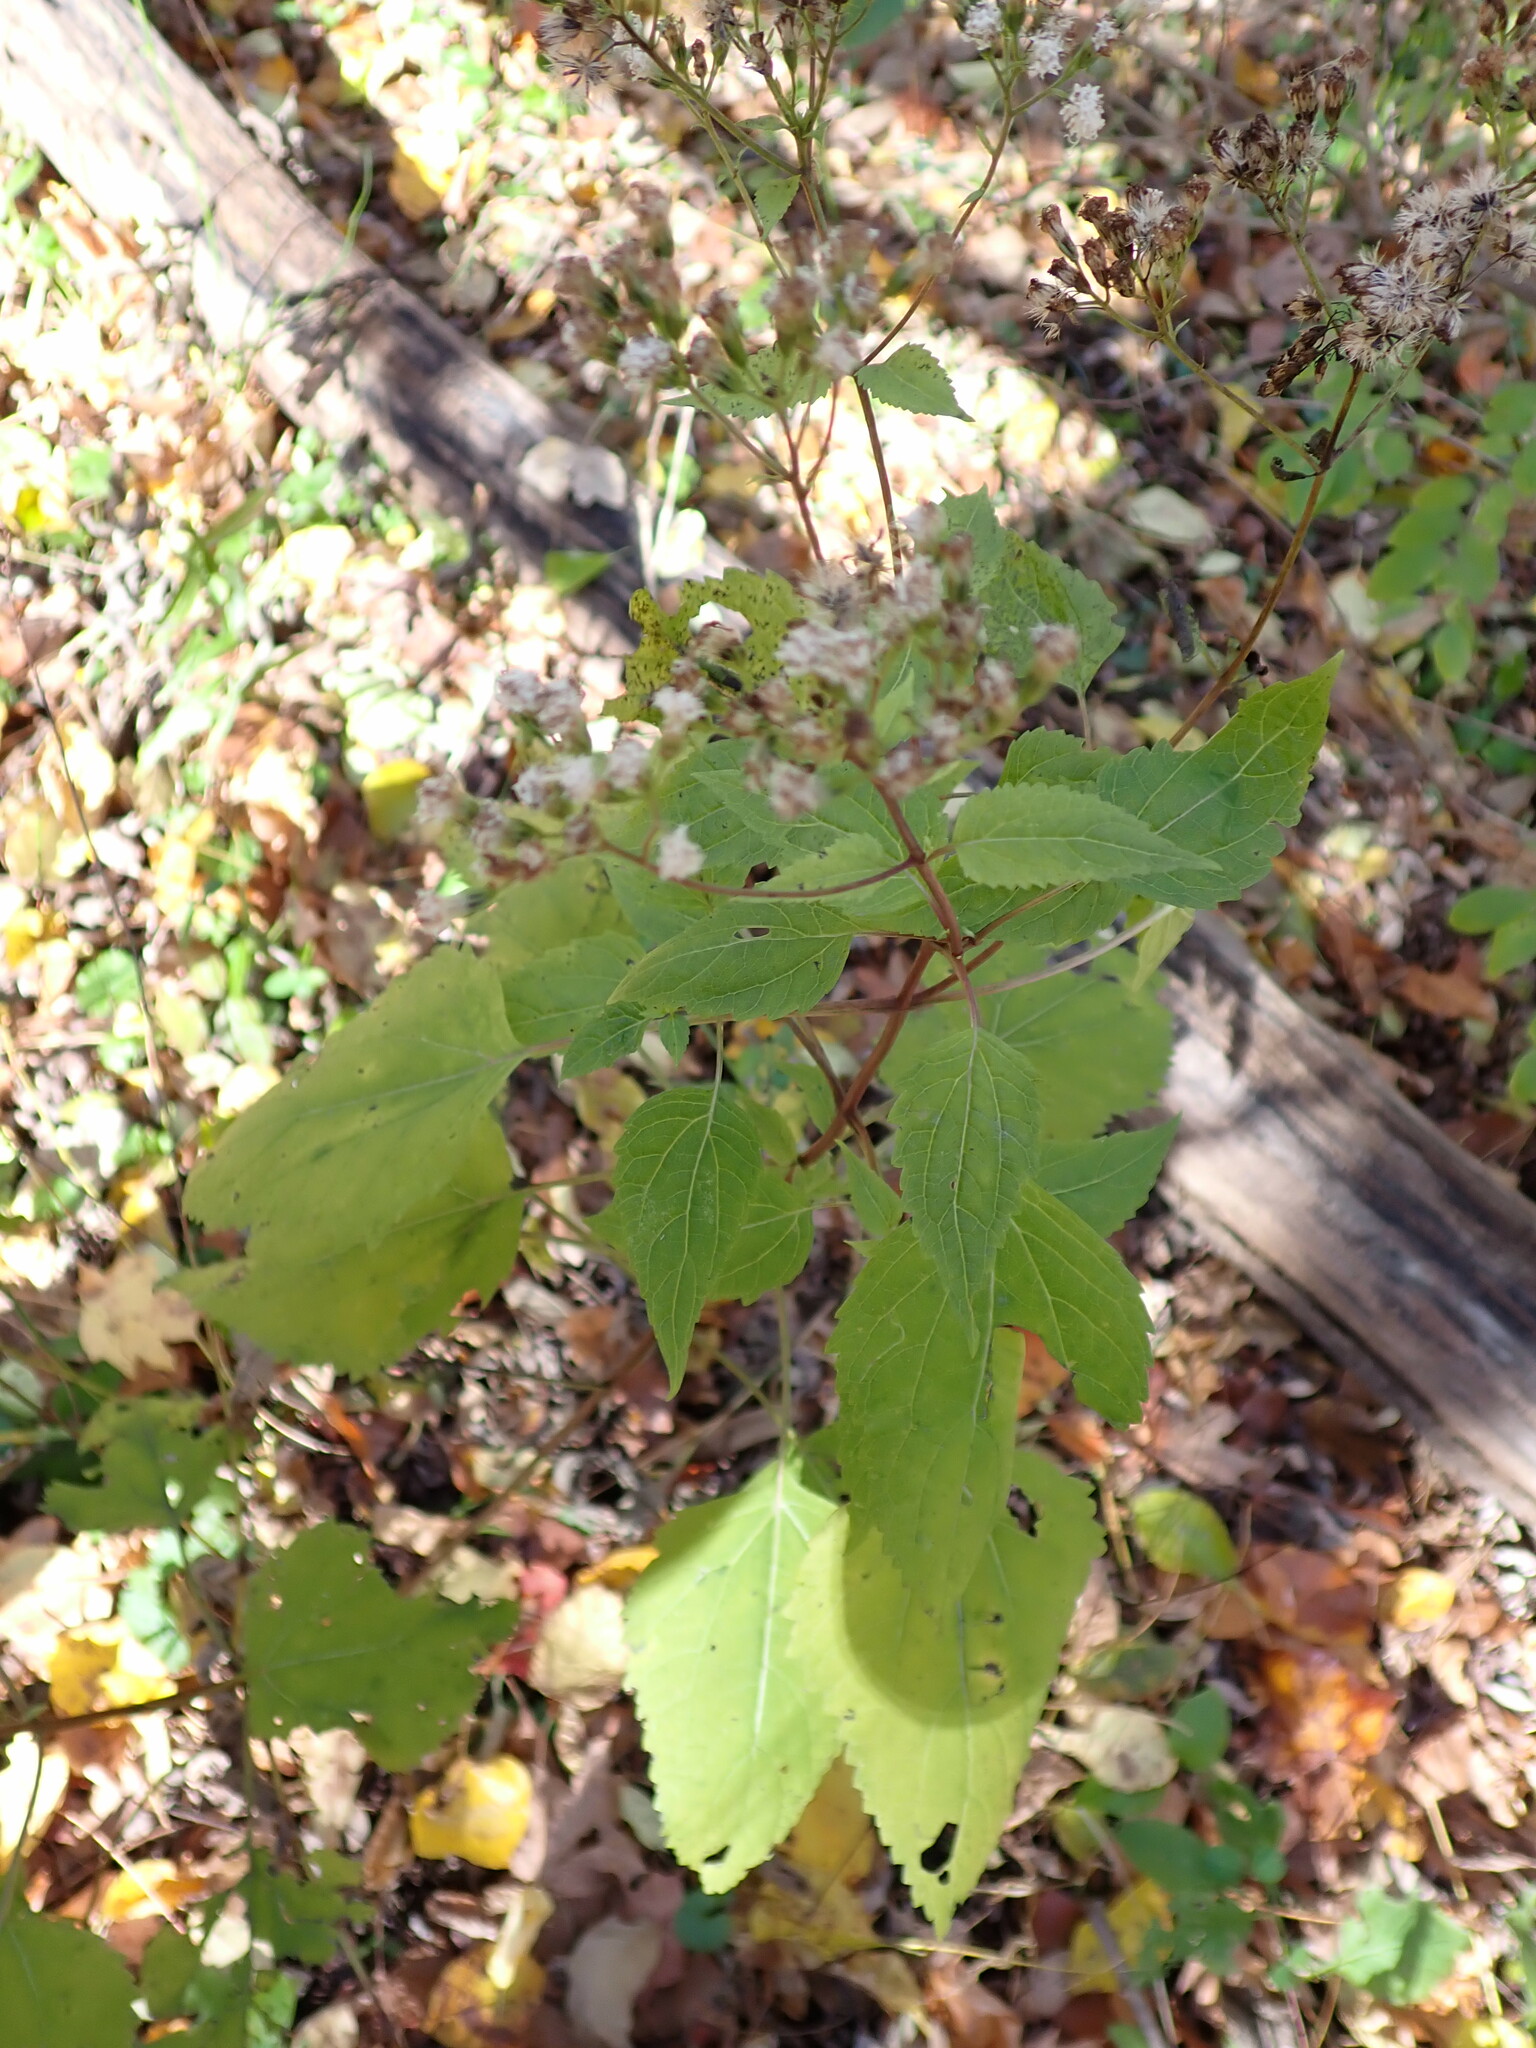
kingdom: Plantae
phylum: Tracheophyta
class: Magnoliopsida
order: Asterales
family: Asteraceae
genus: Ageratina
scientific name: Ageratina altissima
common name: White snakeroot
